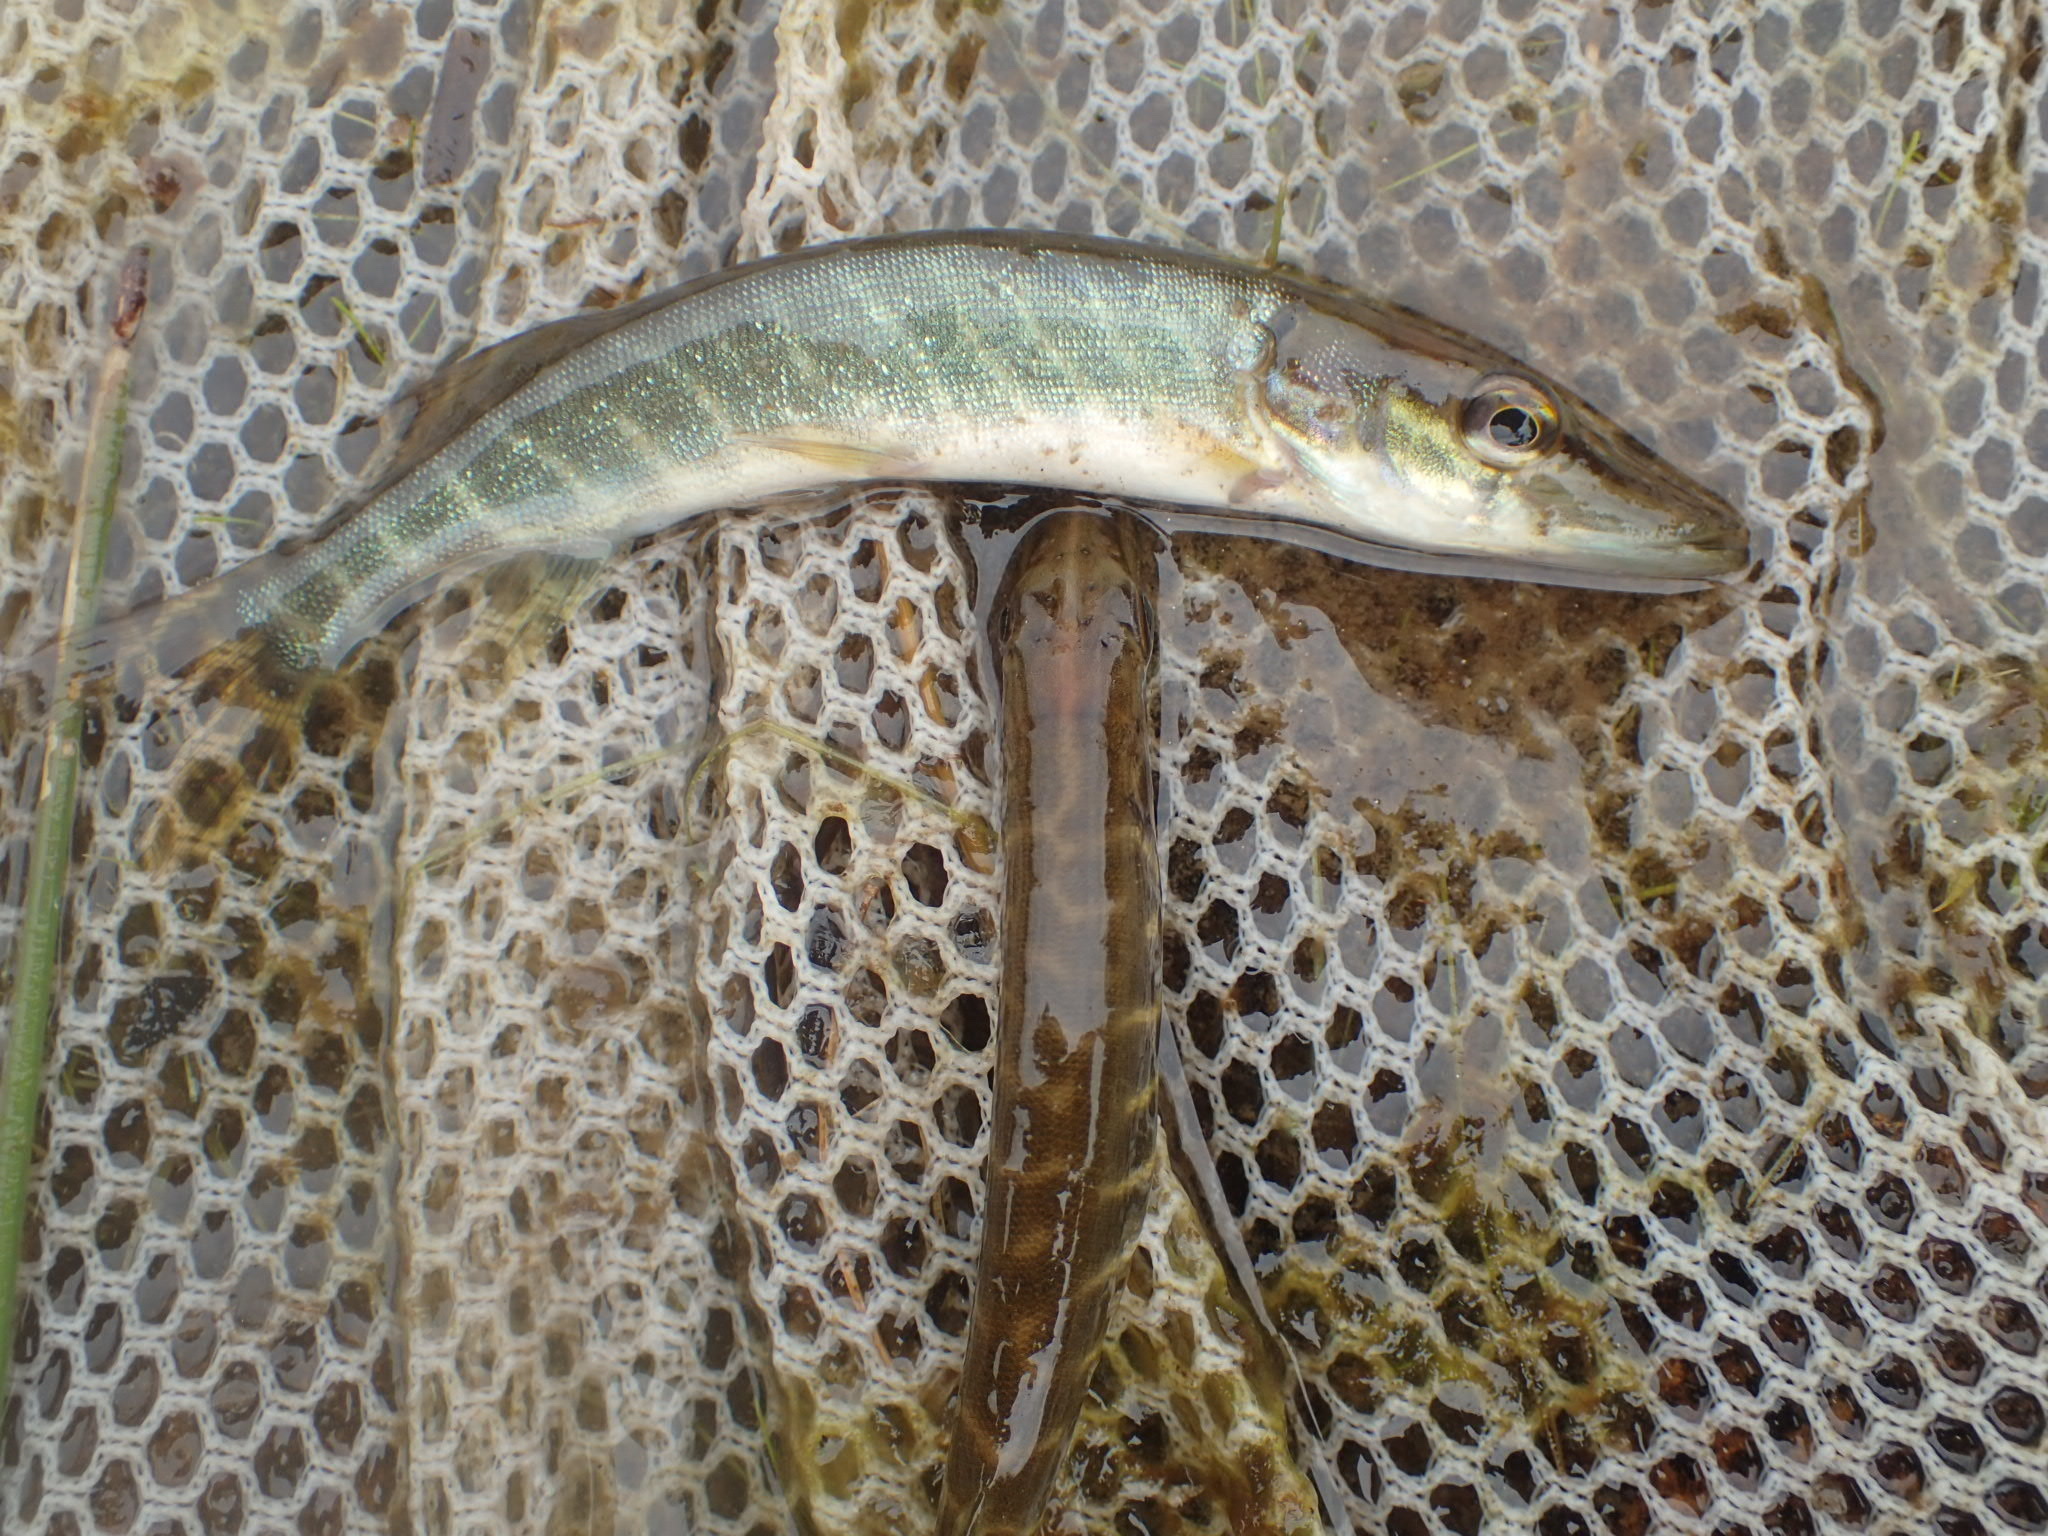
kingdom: Animalia
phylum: Chordata
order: Esociformes
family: Esocidae
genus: Esox
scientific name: Esox lucius
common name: Northern pike
